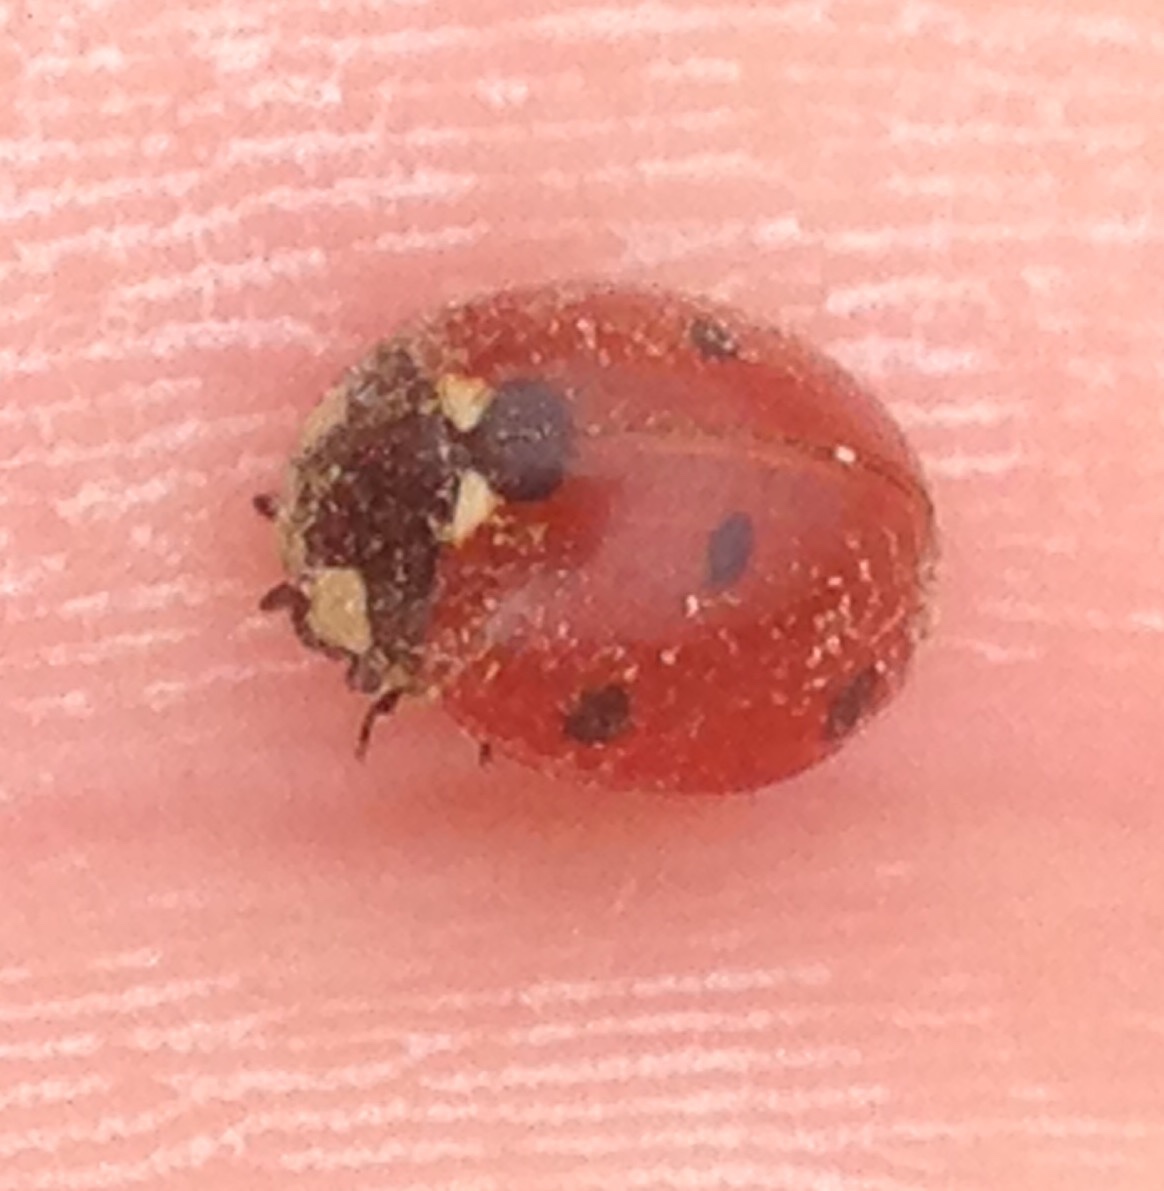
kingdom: Animalia
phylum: Arthropoda
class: Insecta
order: Coleoptera
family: Coccinellidae
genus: Coccinella
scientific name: Coccinella septempunctata
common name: Sevenspotted lady beetle
